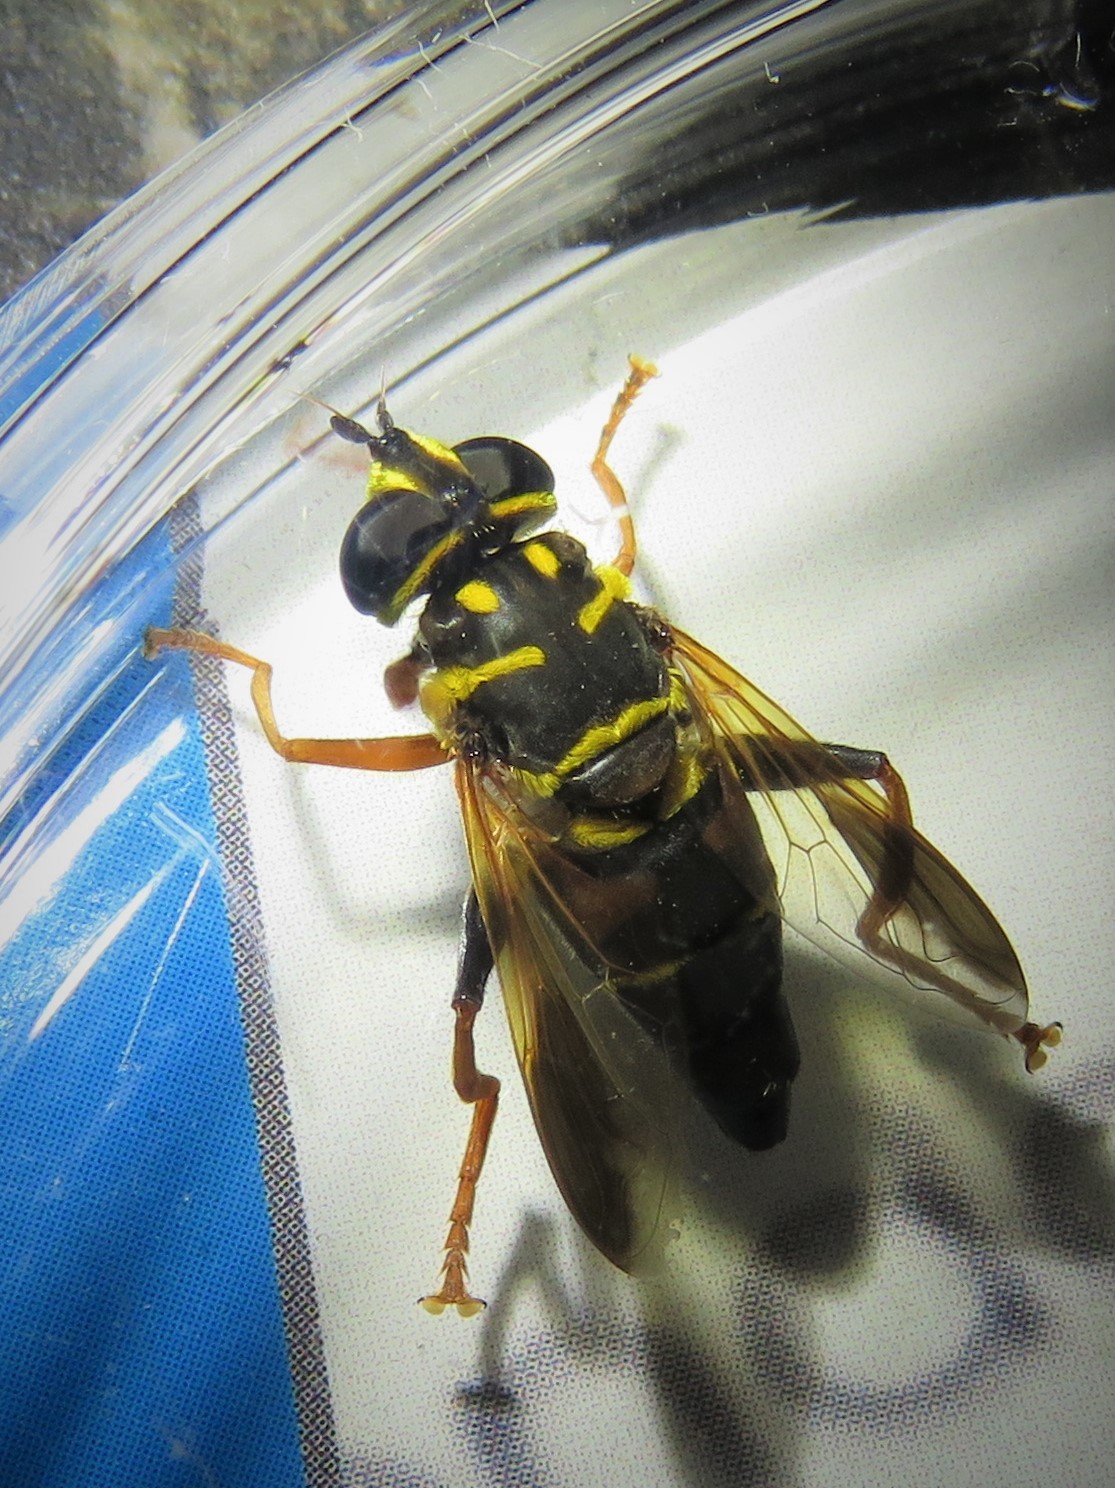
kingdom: Animalia
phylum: Arthropoda
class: Insecta
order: Diptera
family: Syrphidae
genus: Meromacrus
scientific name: Meromacrus acutus
